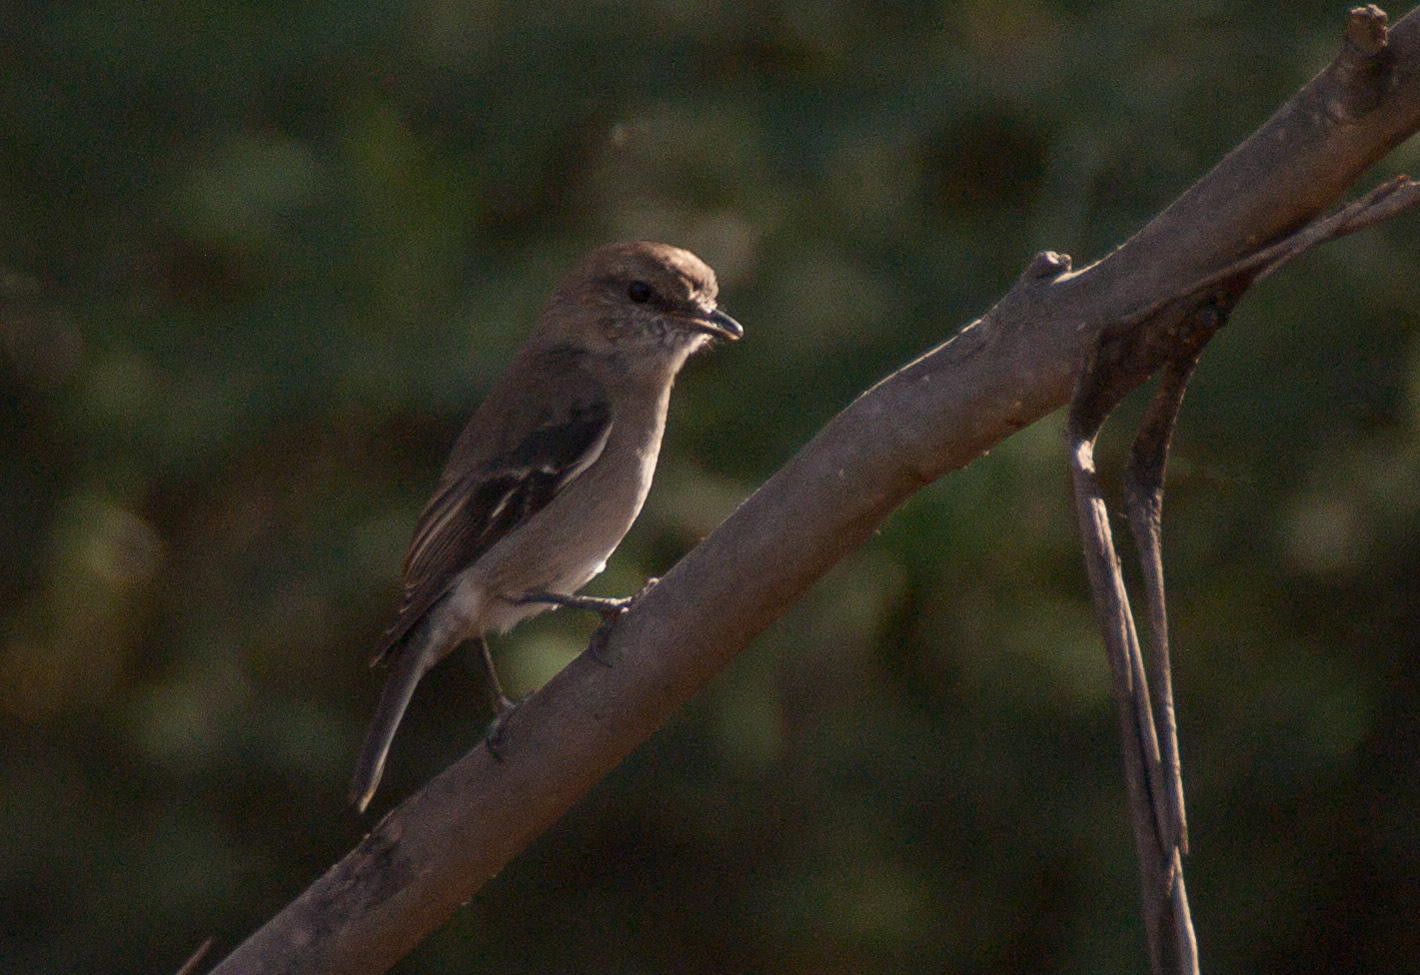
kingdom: Animalia
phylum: Chordata
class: Aves
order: Passeriformes
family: Petroicidae
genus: Melanodryas
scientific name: Melanodryas vittata
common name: Dusky robin
